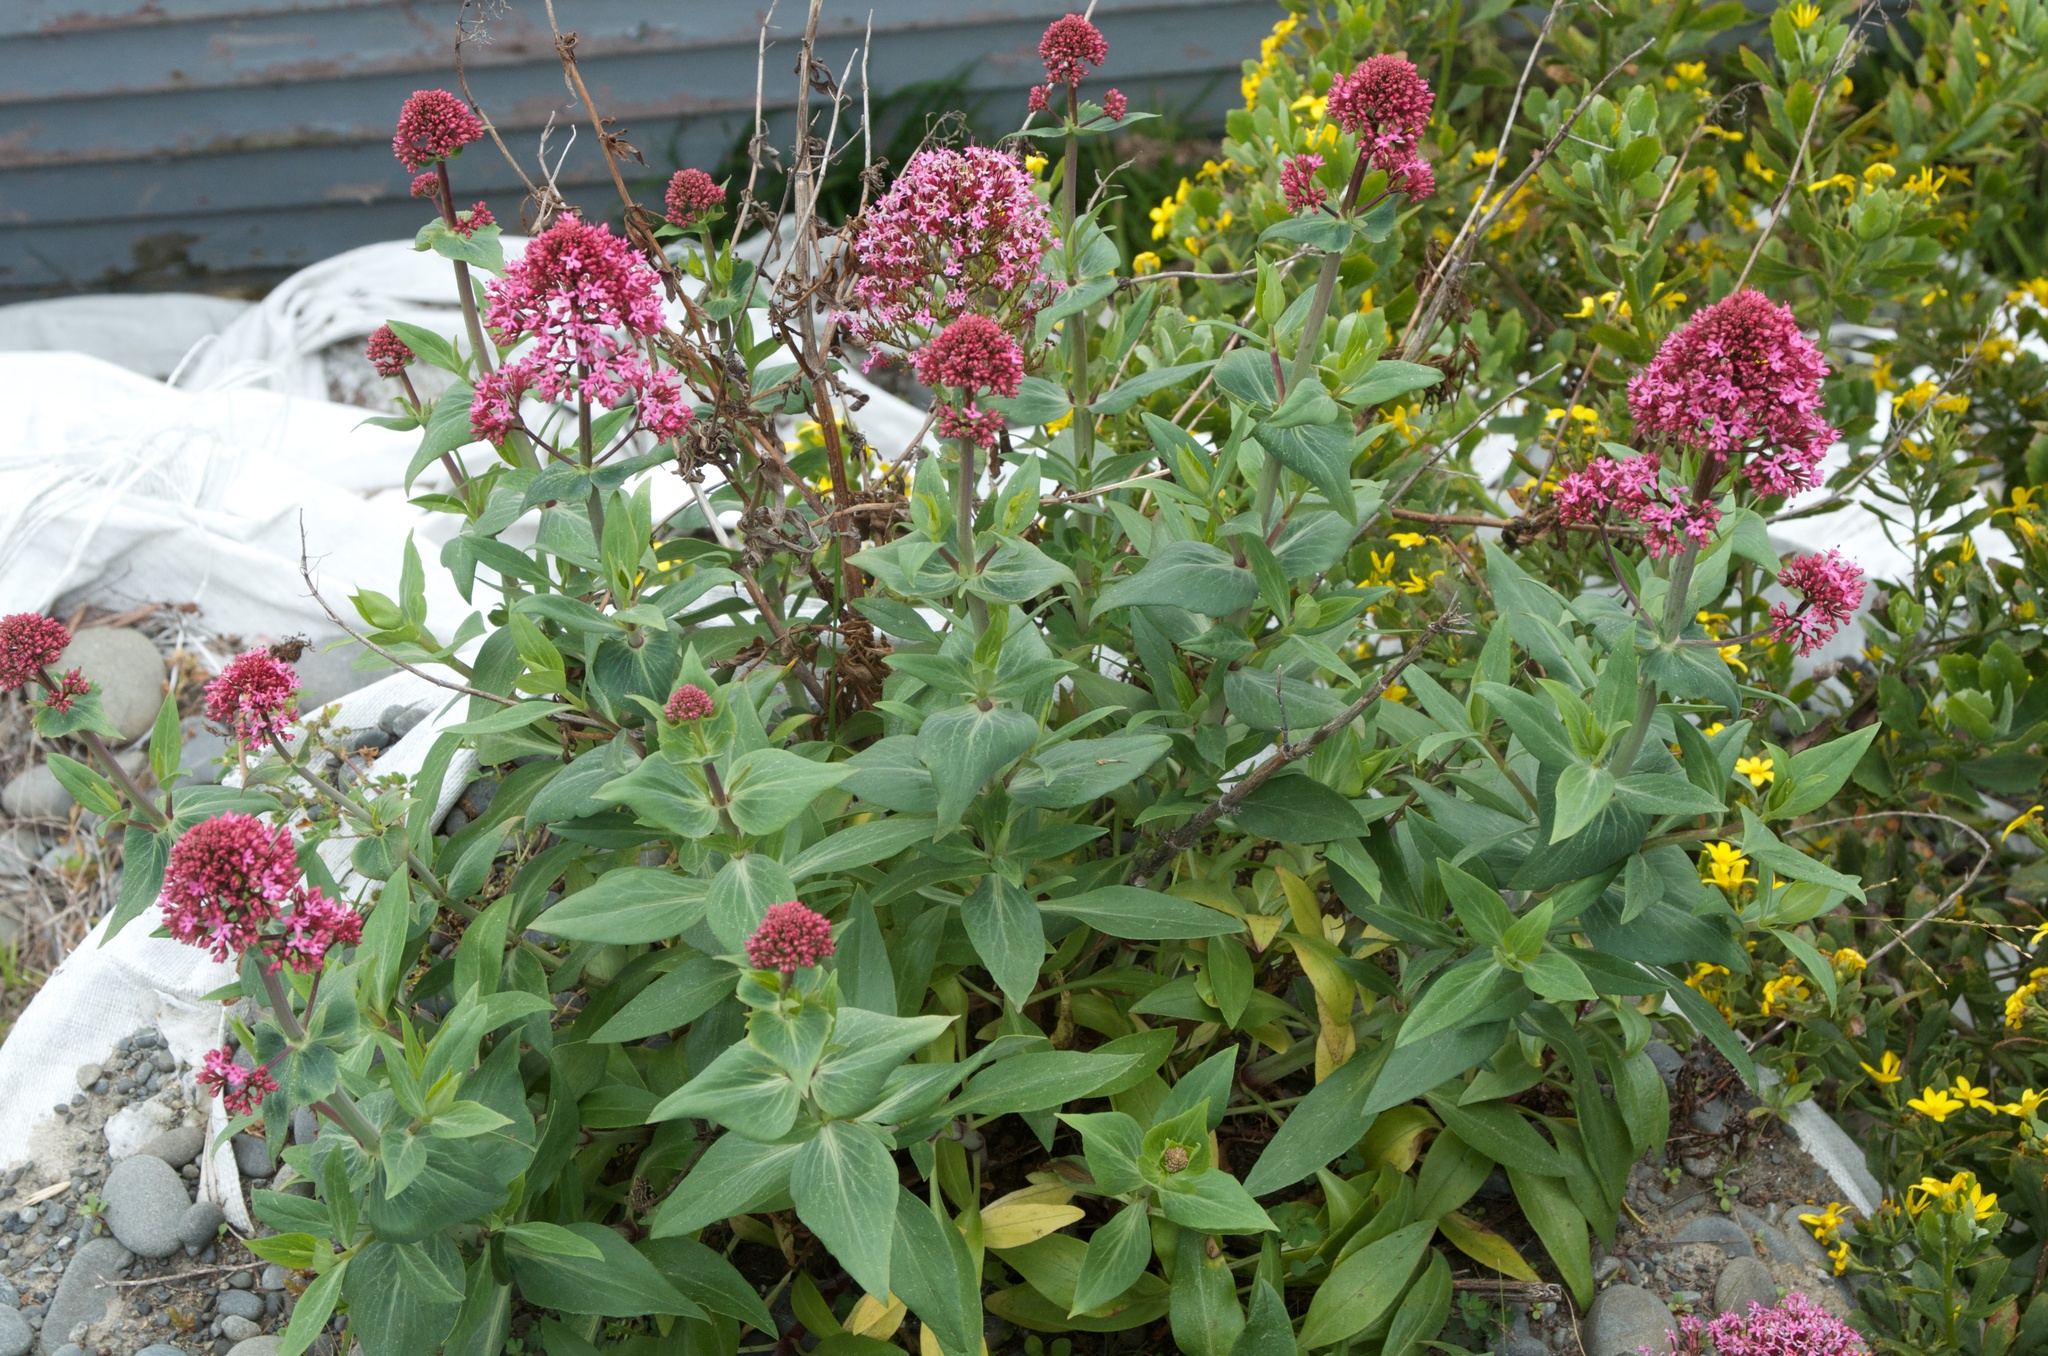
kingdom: Plantae
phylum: Tracheophyta
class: Magnoliopsida
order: Dipsacales
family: Caprifoliaceae
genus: Centranthus
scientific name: Centranthus ruber
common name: Red valerian
